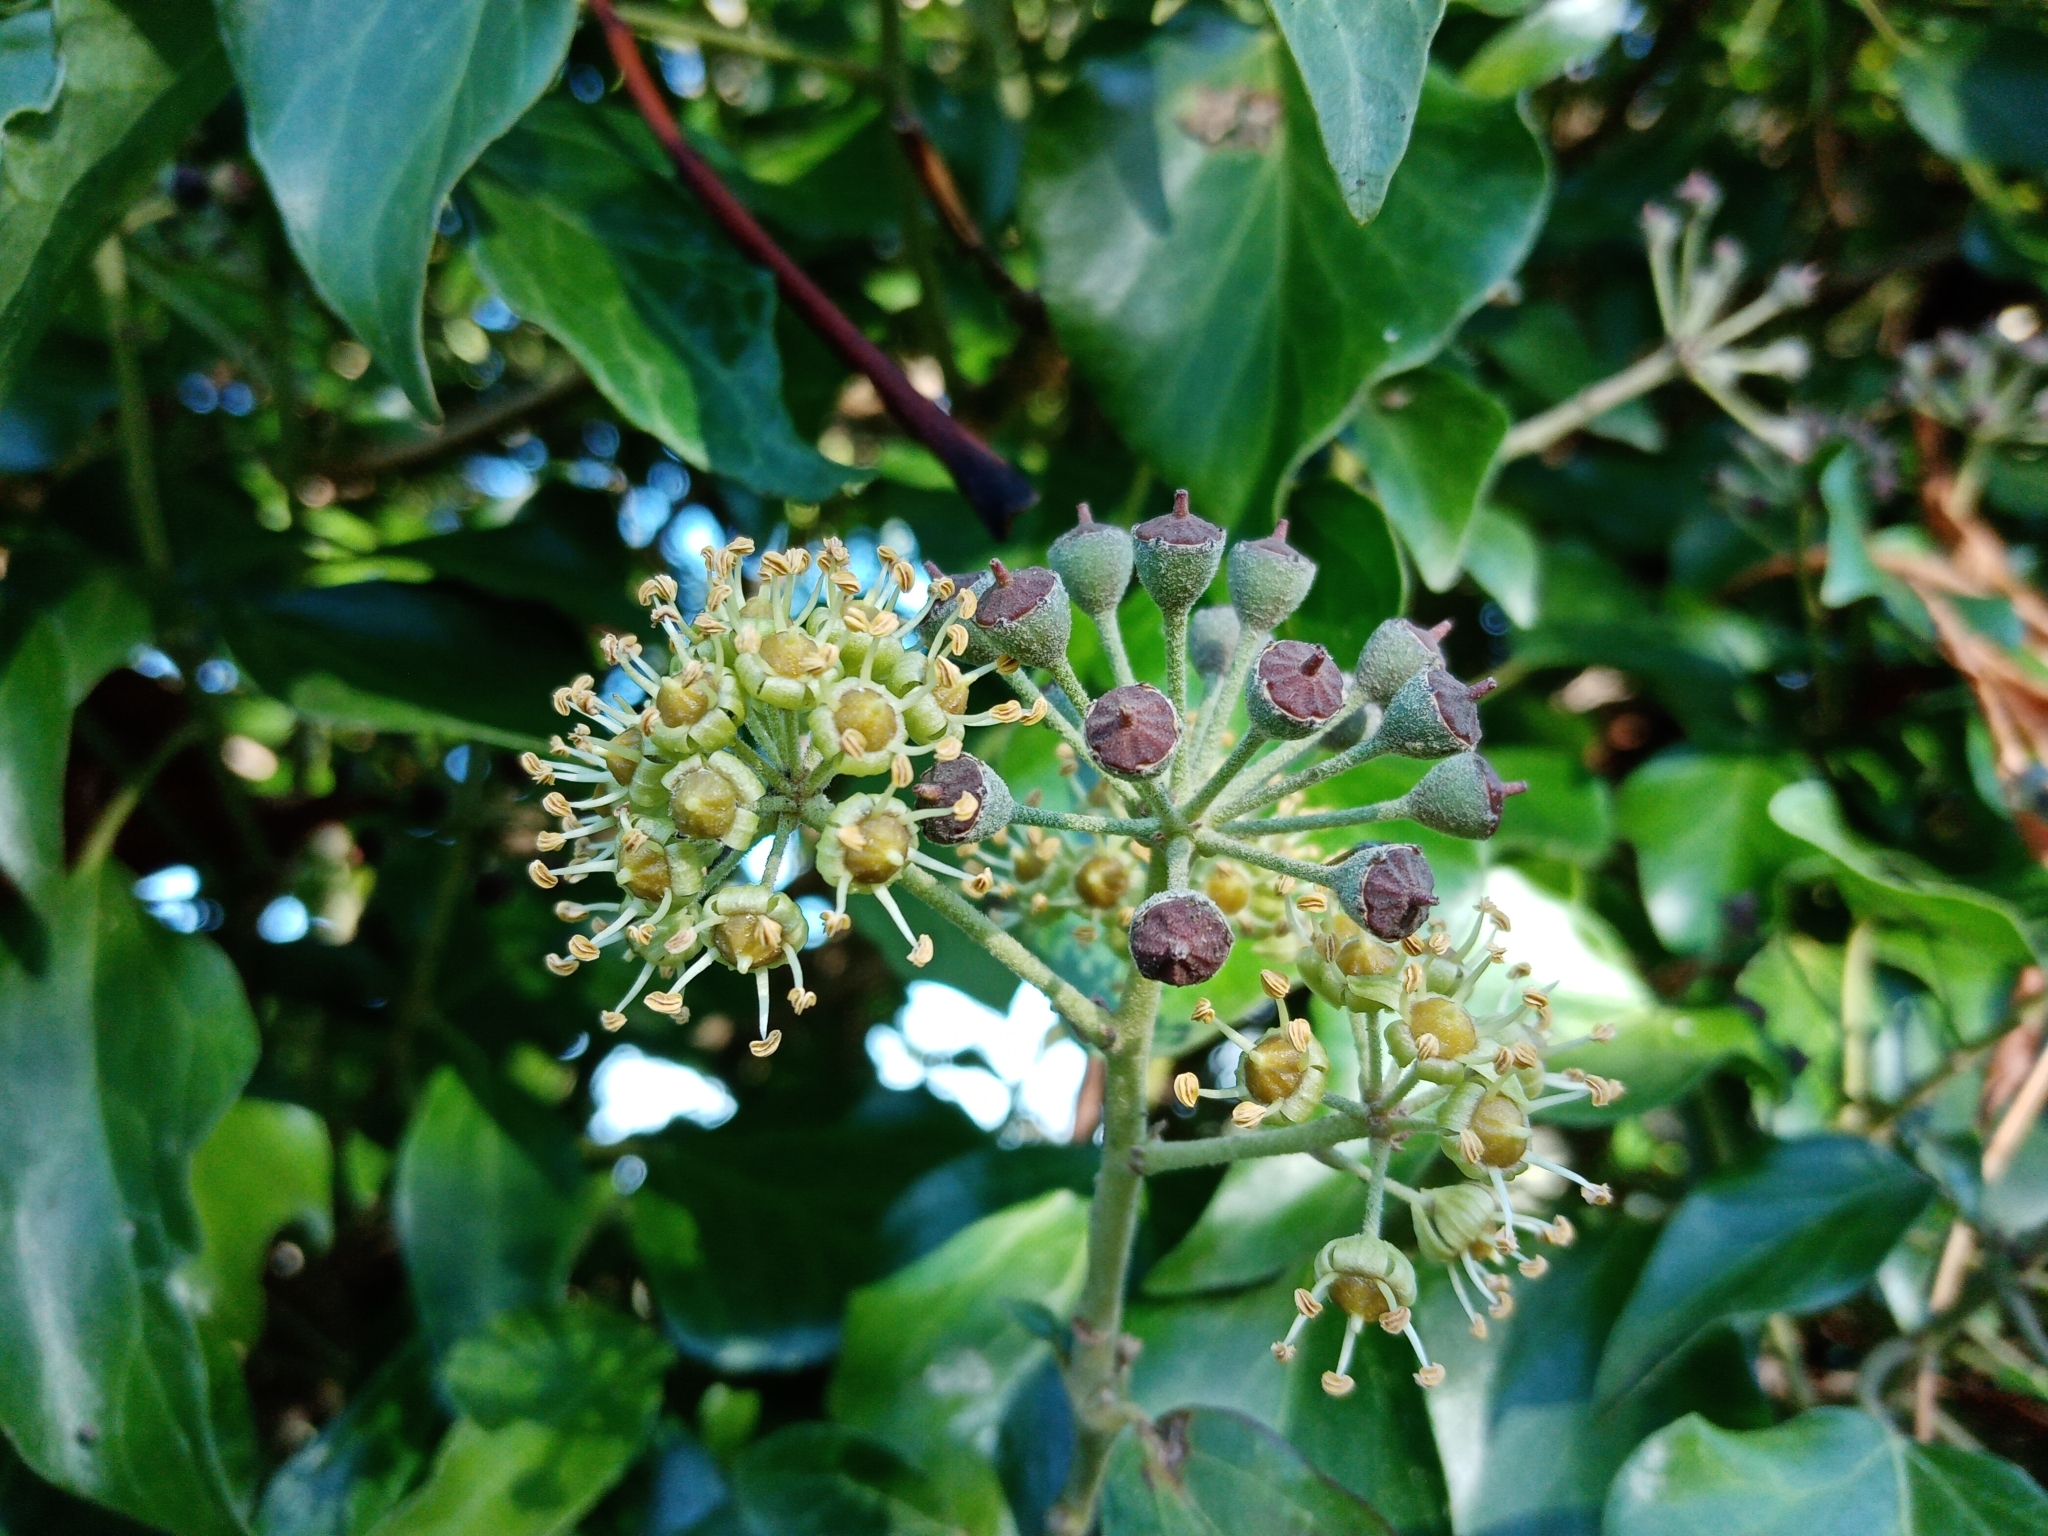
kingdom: Plantae
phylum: Tracheophyta
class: Magnoliopsida
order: Apiales
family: Araliaceae
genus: Hedera
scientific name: Hedera helix
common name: Ivy
